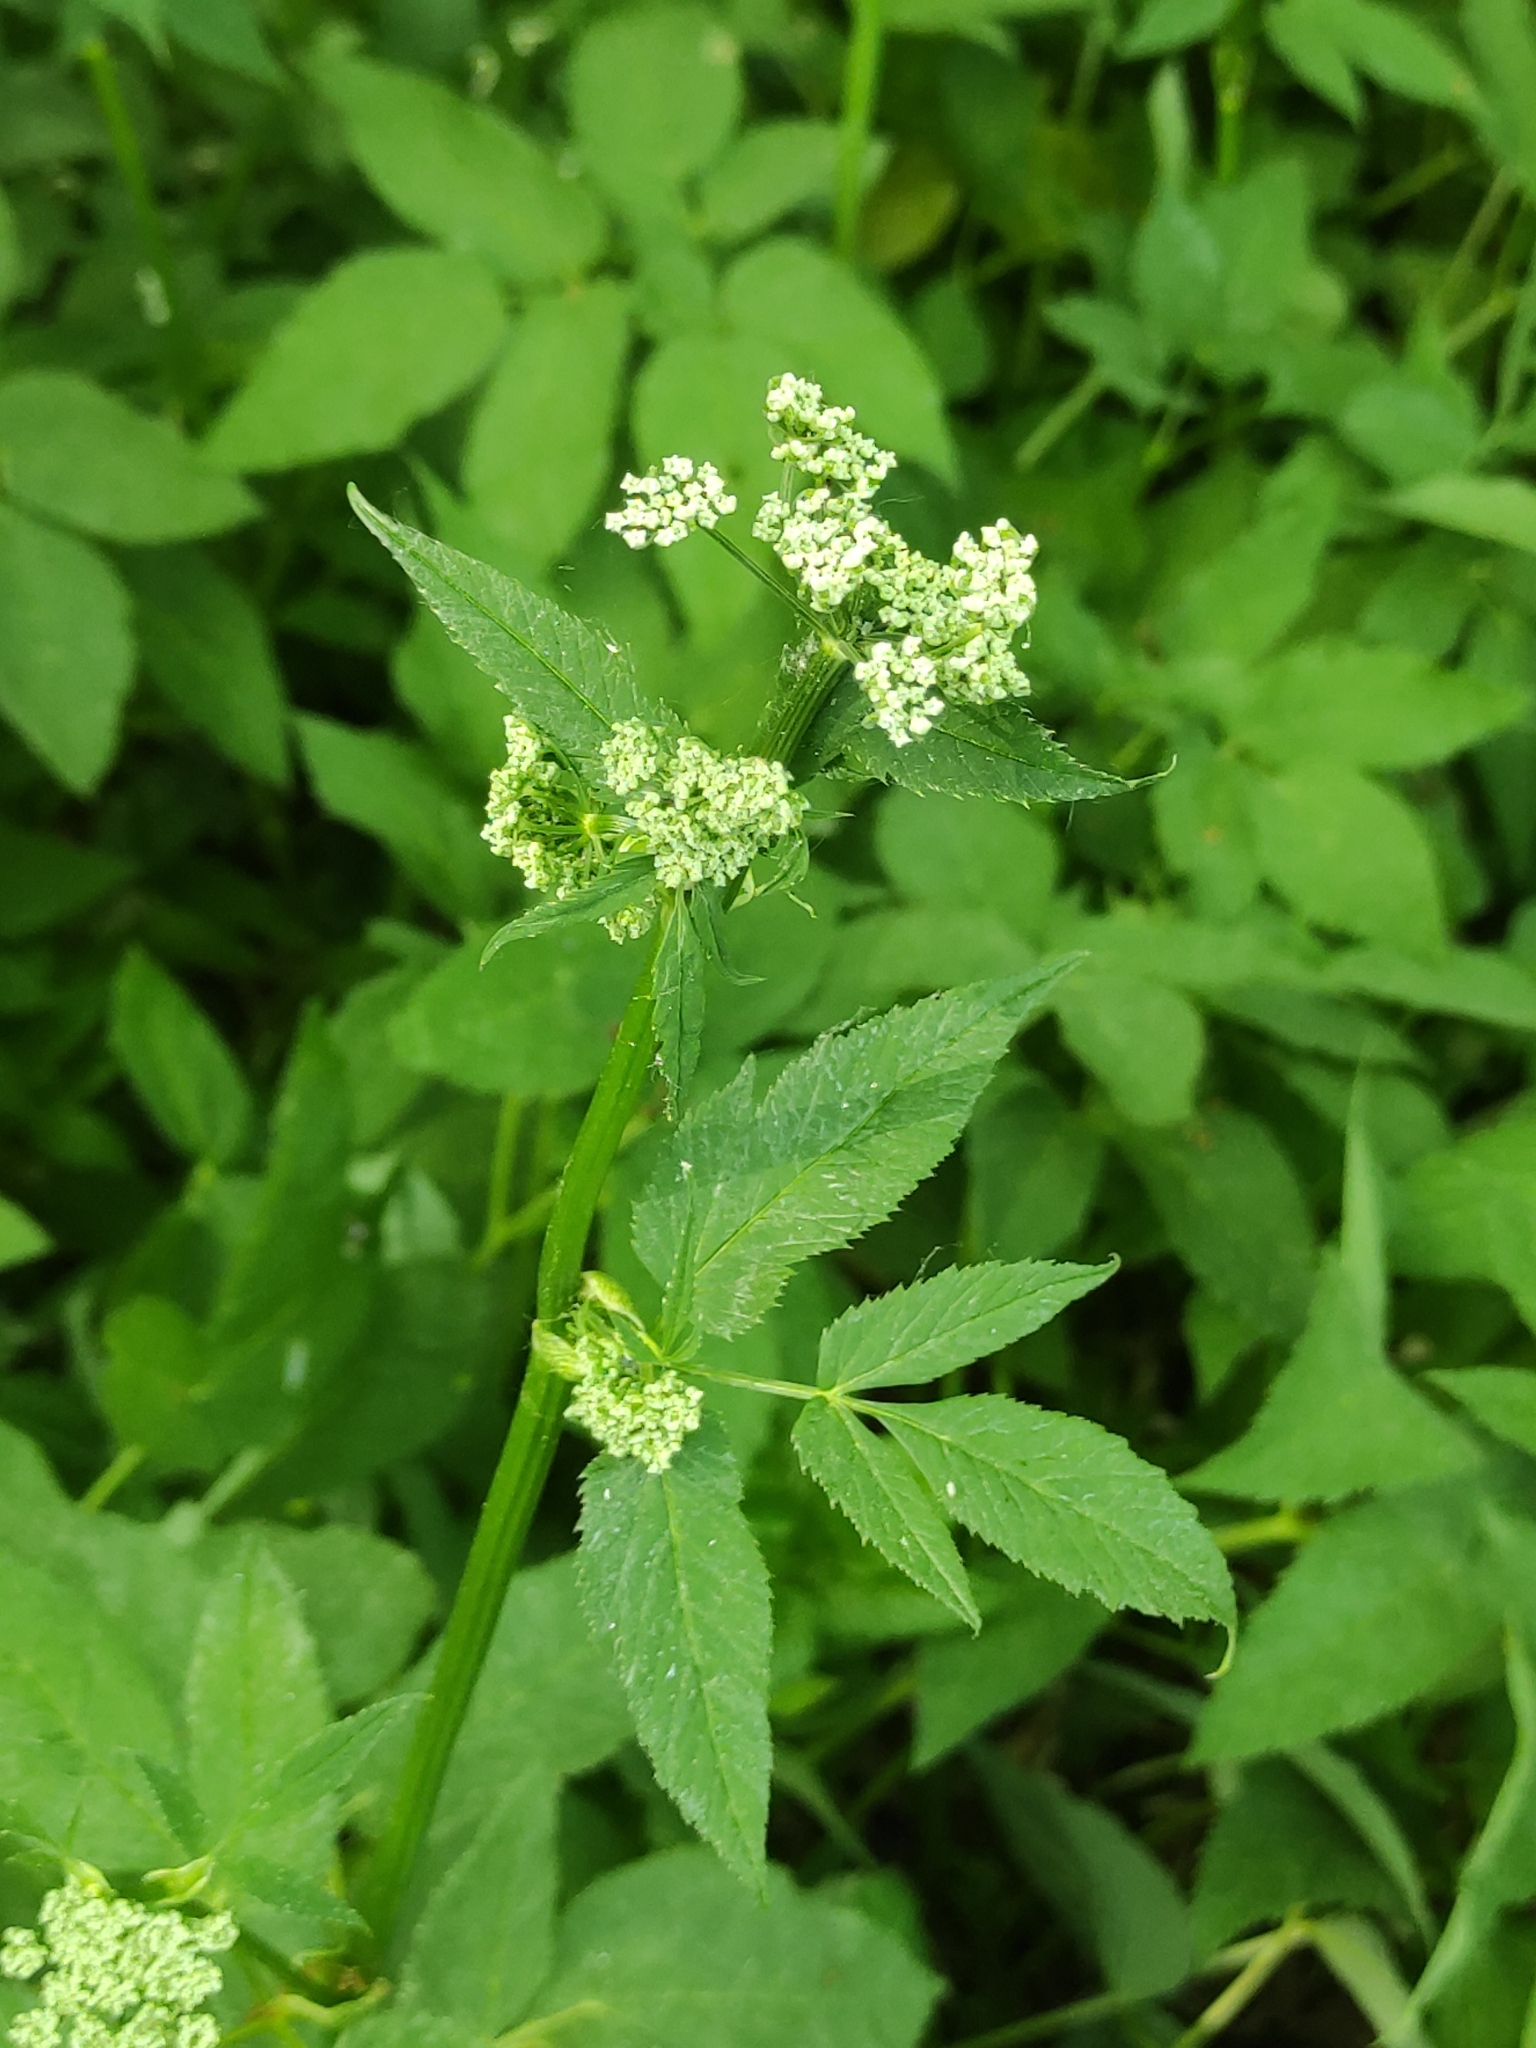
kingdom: Plantae
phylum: Tracheophyta
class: Magnoliopsida
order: Apiales
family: Apiaceae
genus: Aegopodium
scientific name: Aegopodium podagraria
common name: Ground-elder
